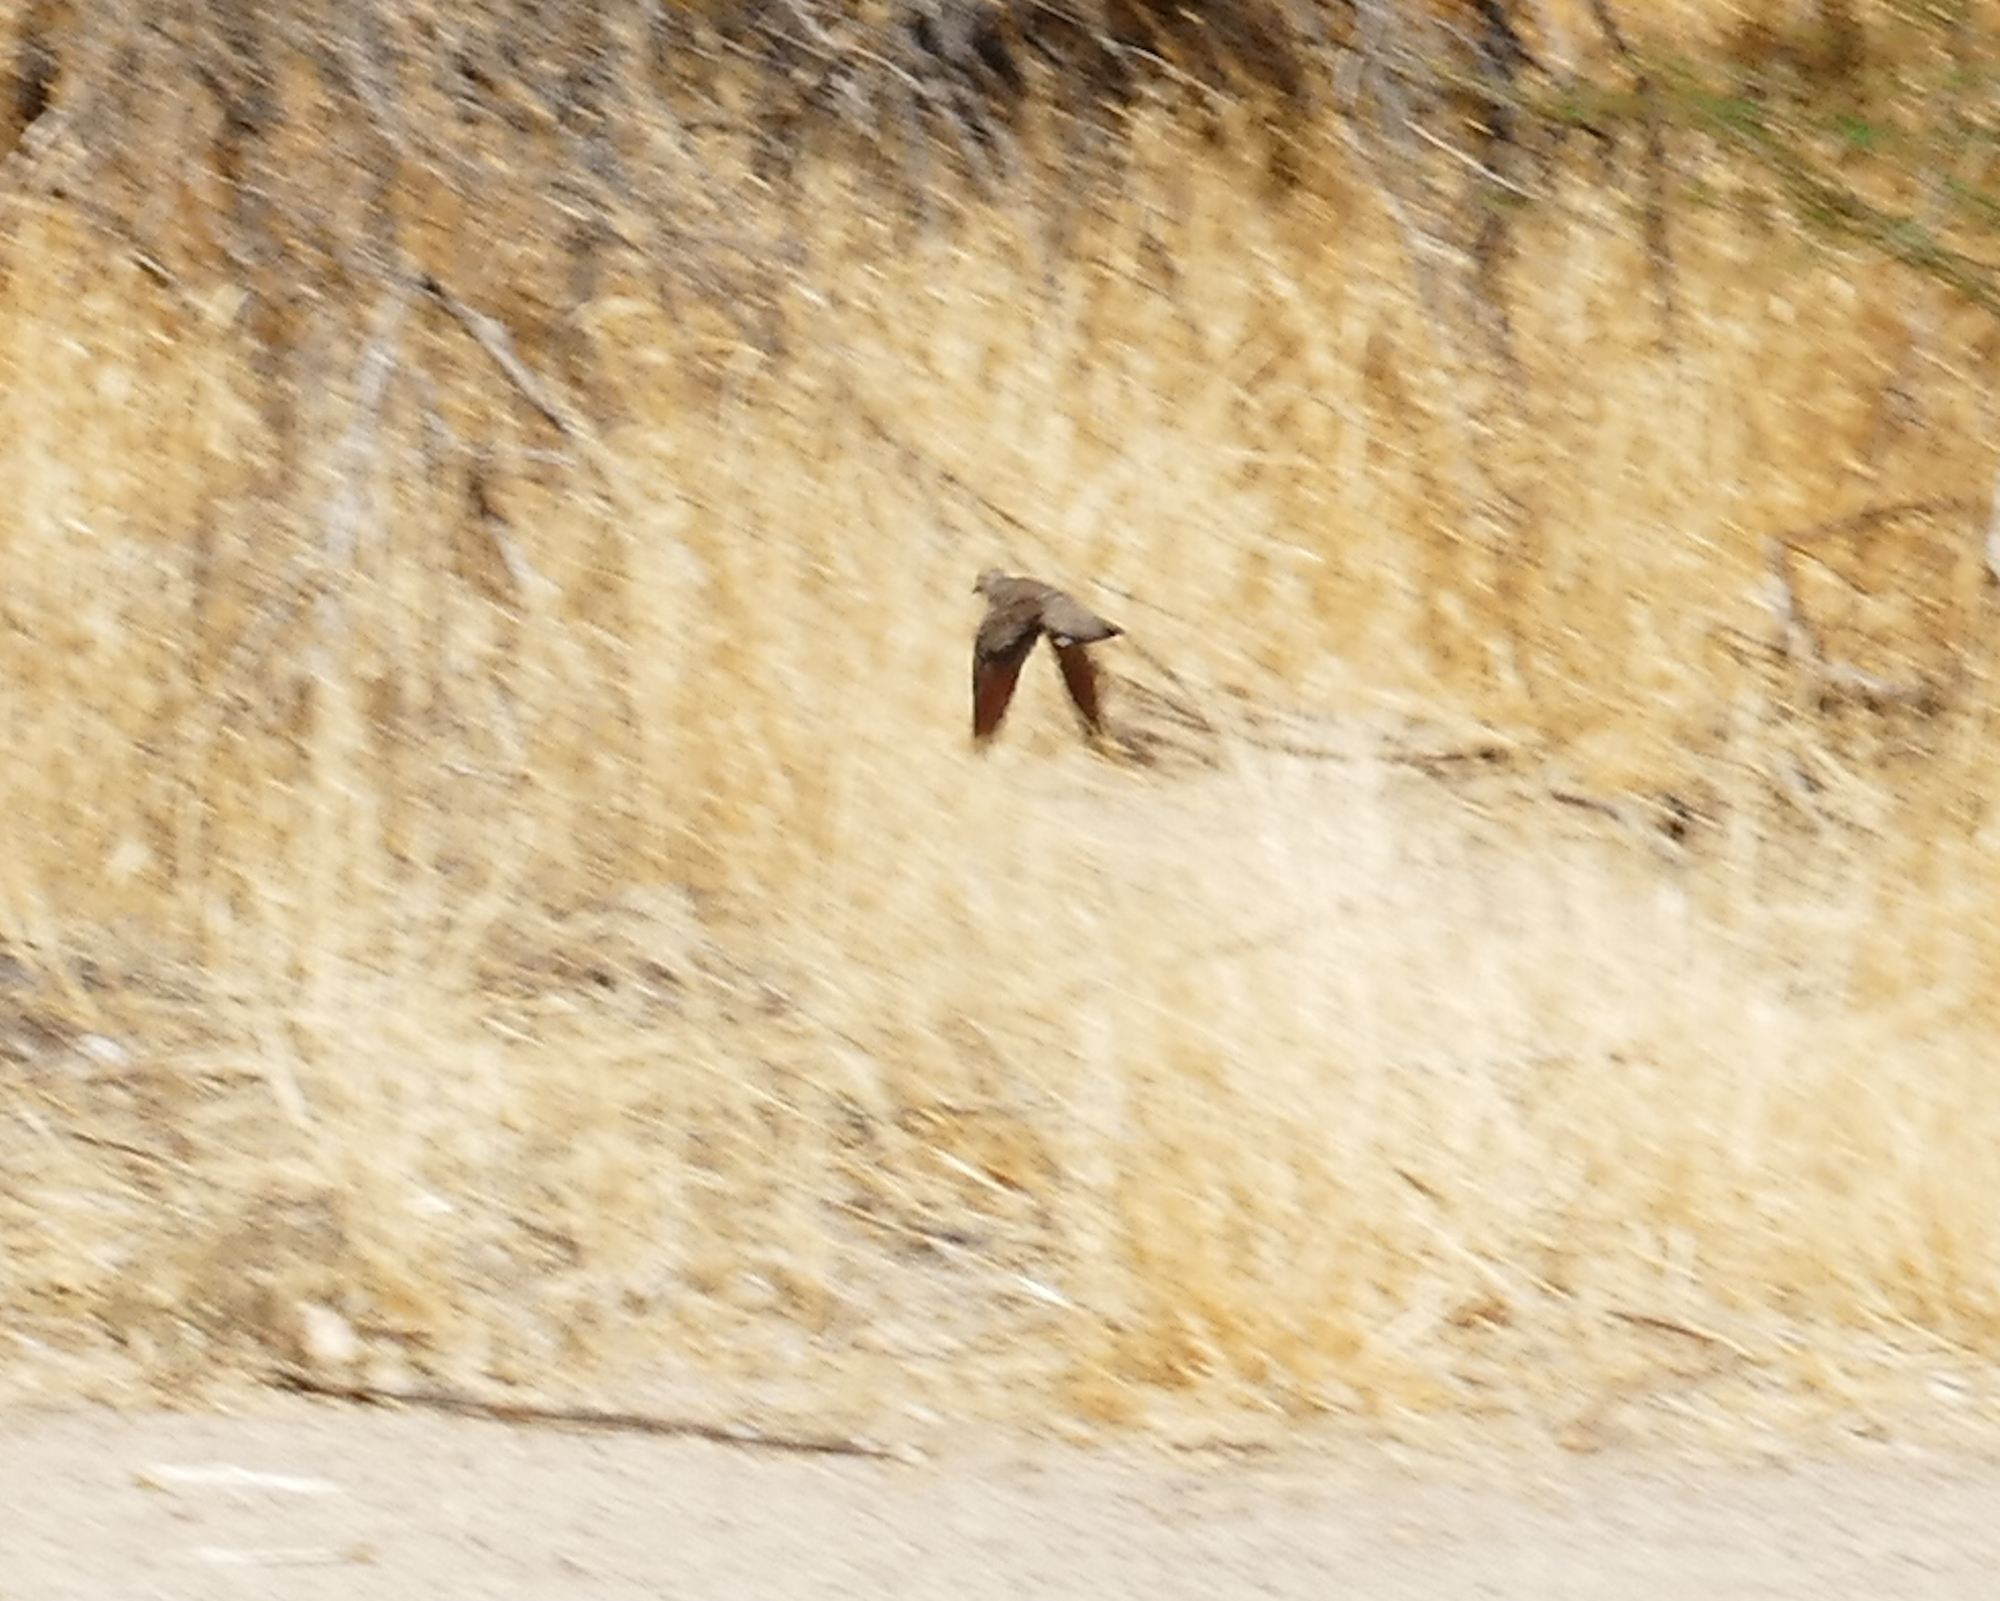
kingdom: Animalia
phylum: Chordata
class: Aves
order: Columbiformes
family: Columbidae
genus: Columbina
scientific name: Columbina passerina
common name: Common ground-dove
